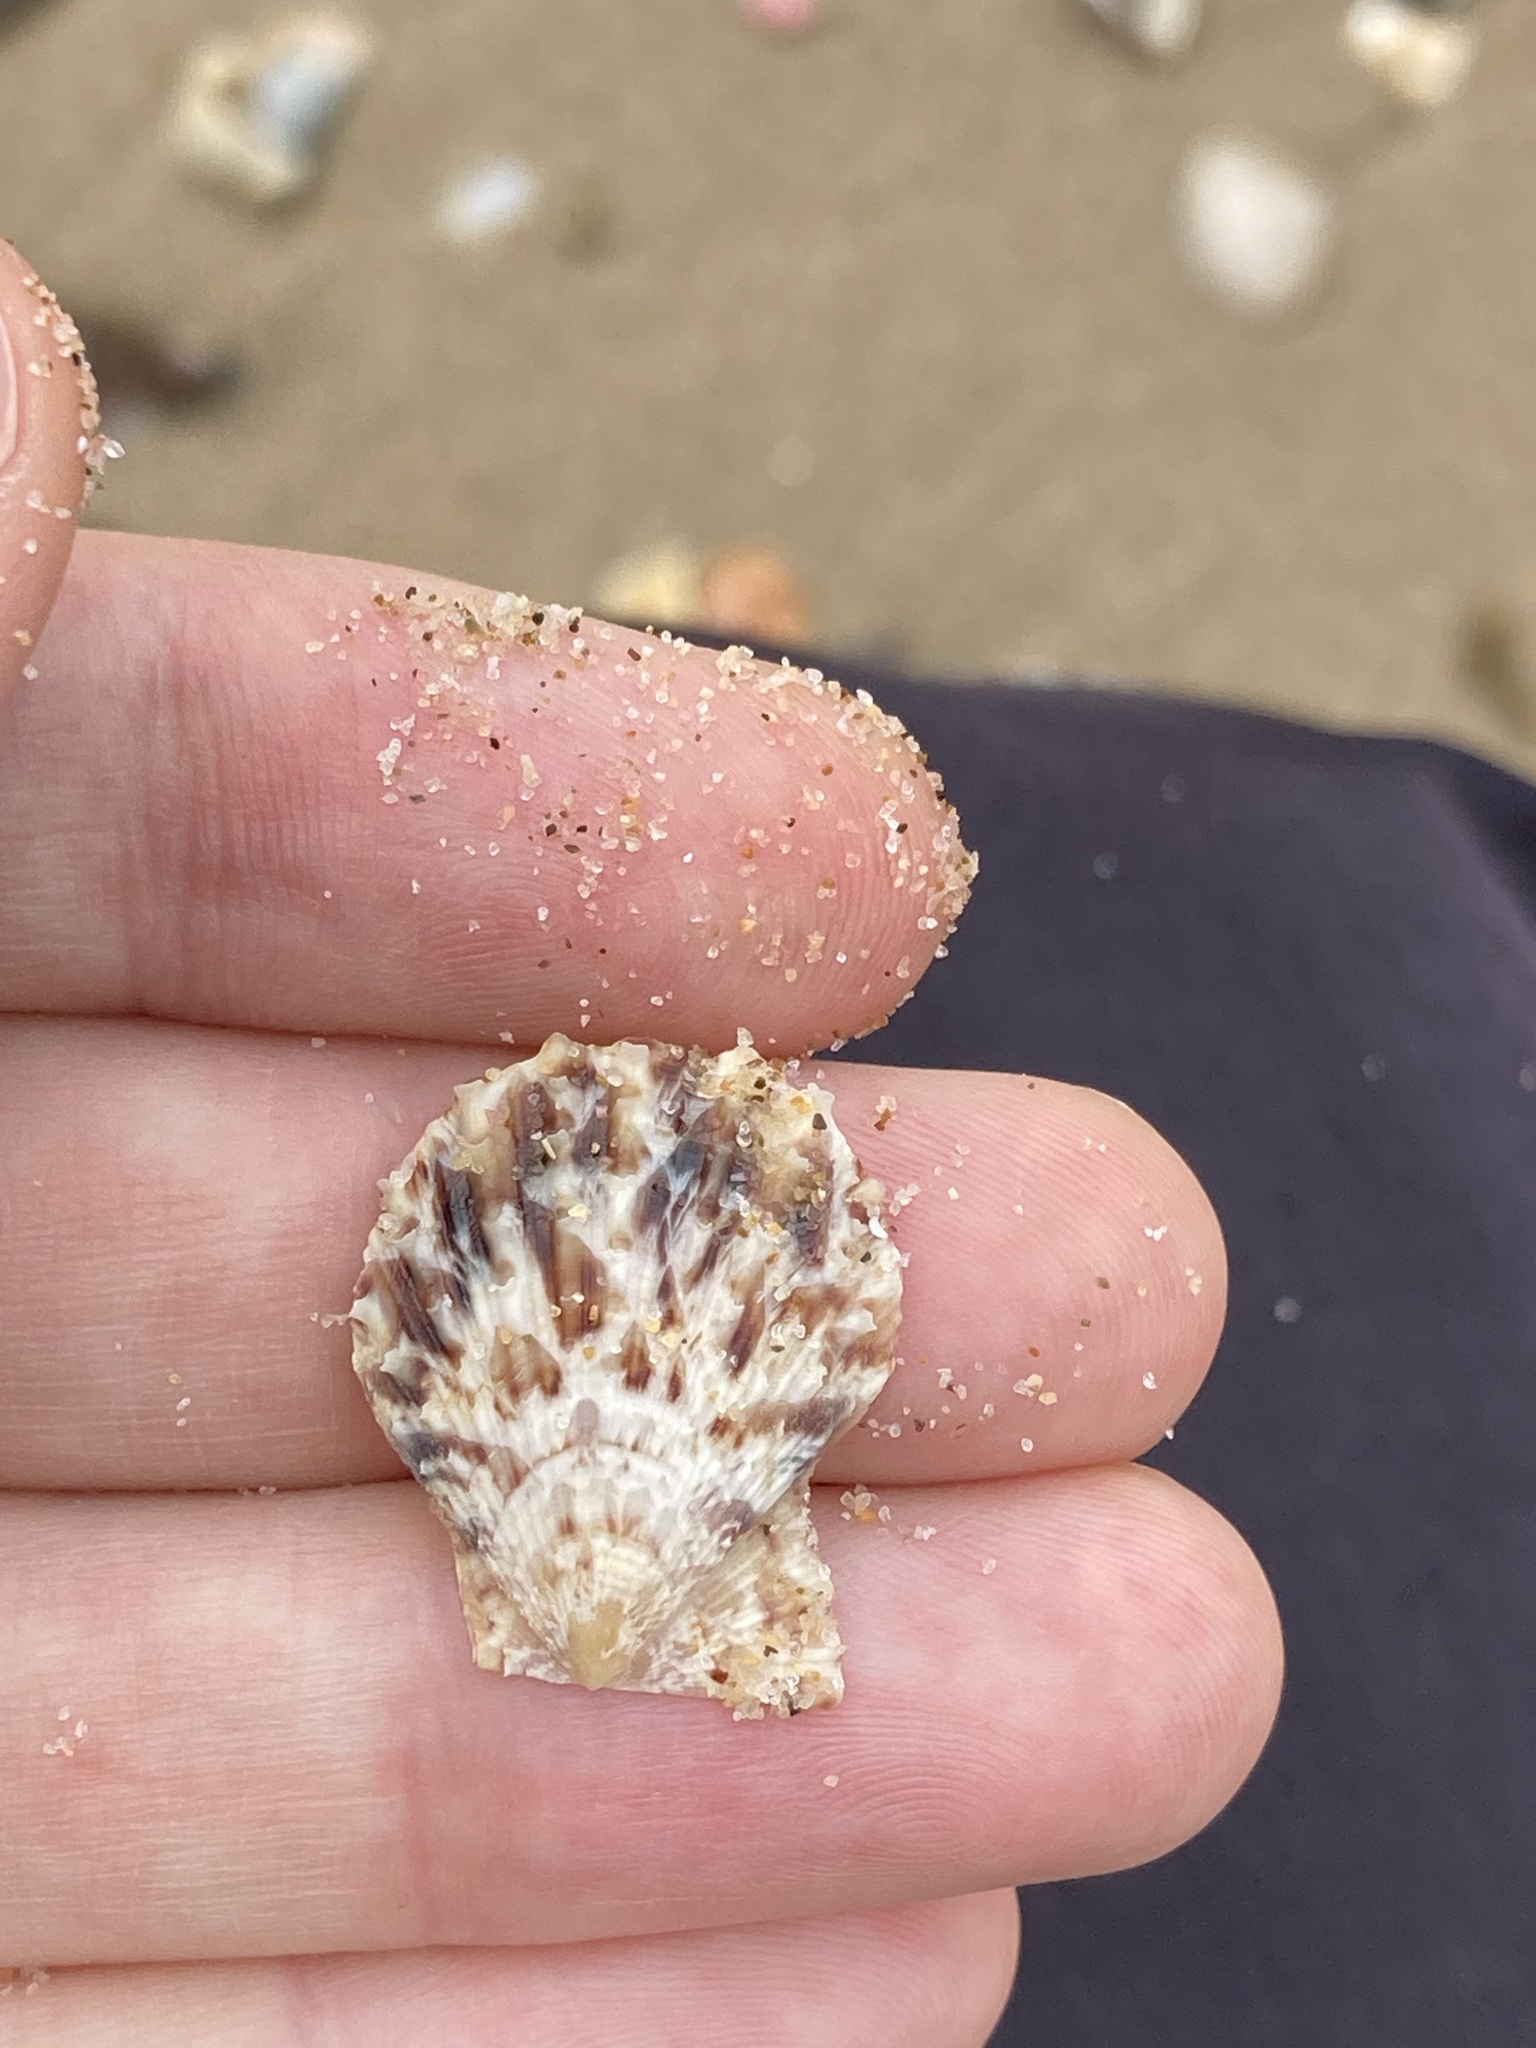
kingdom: Animalia
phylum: Mollusca
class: Bivalvia
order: Pectinida
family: Pectinidae
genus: Scaeochlamys
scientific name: Scaeochlamys livida
